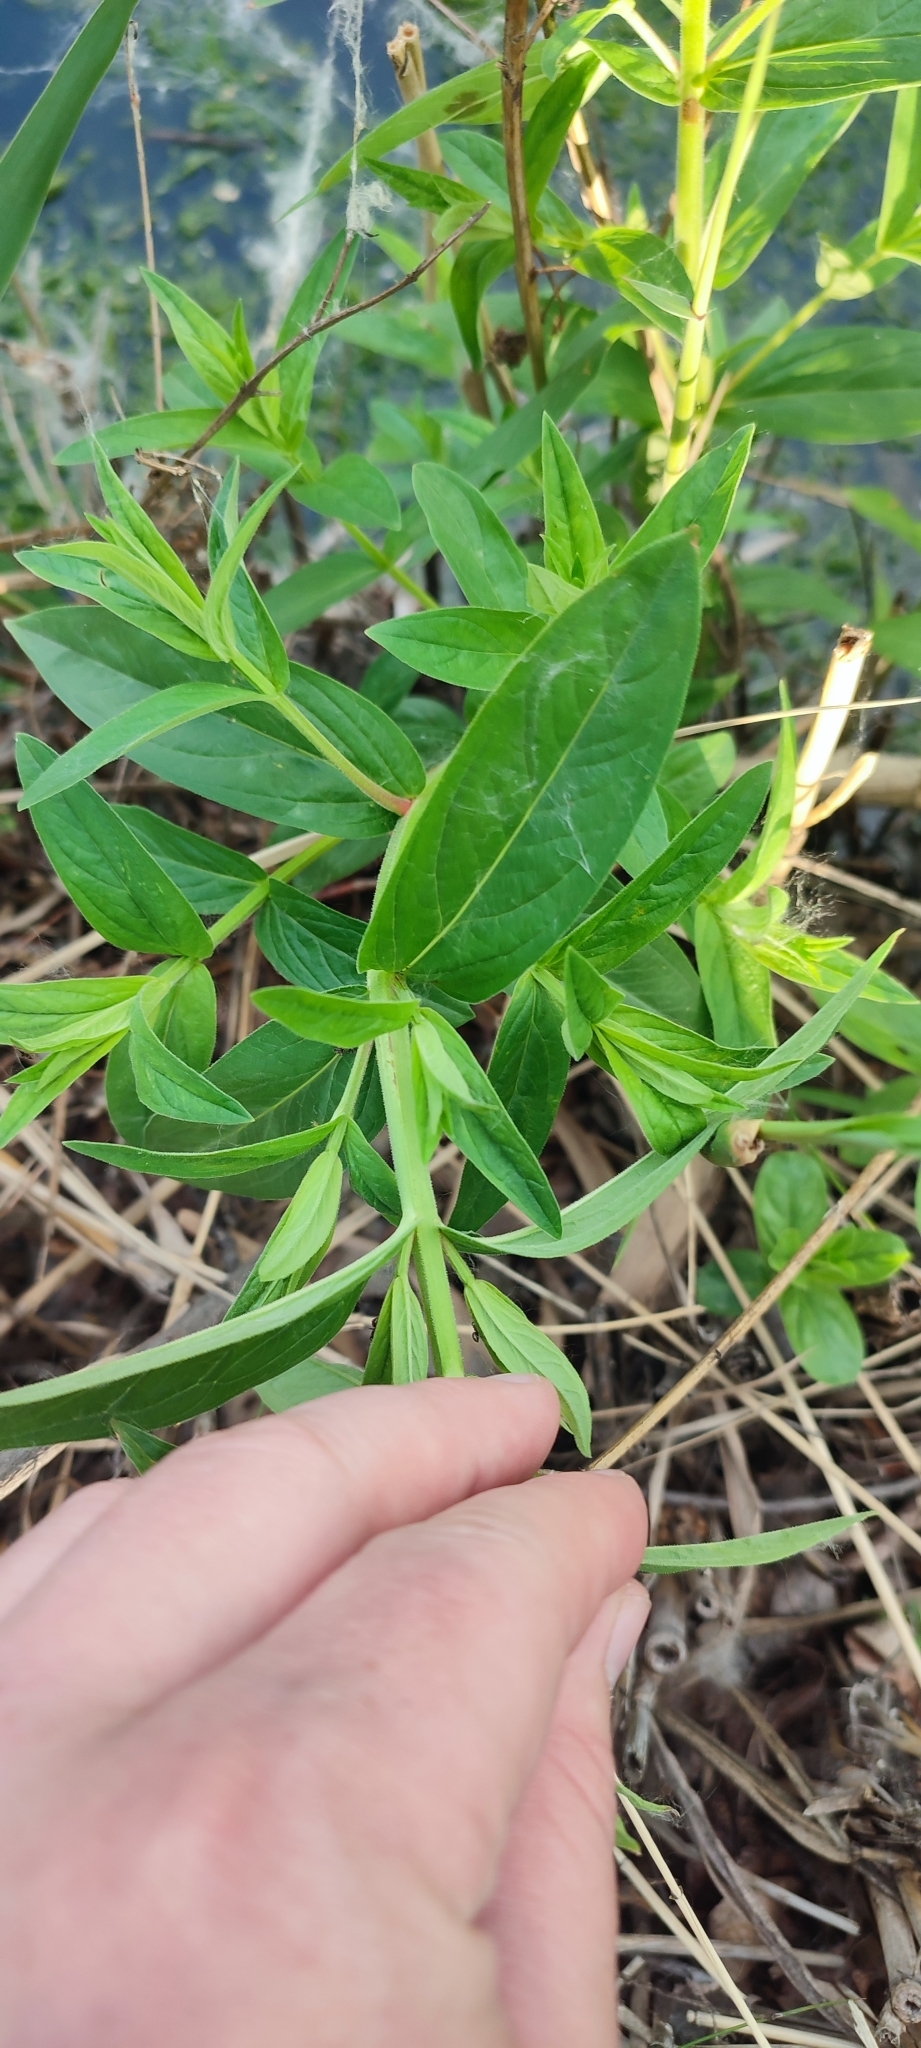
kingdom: Plantae
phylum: Tracheophyta
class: Magnoliopsida
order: Myrtales
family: Lythraceae
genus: Lythrum
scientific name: Lythrum salicaria
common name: Purple loosestrife
